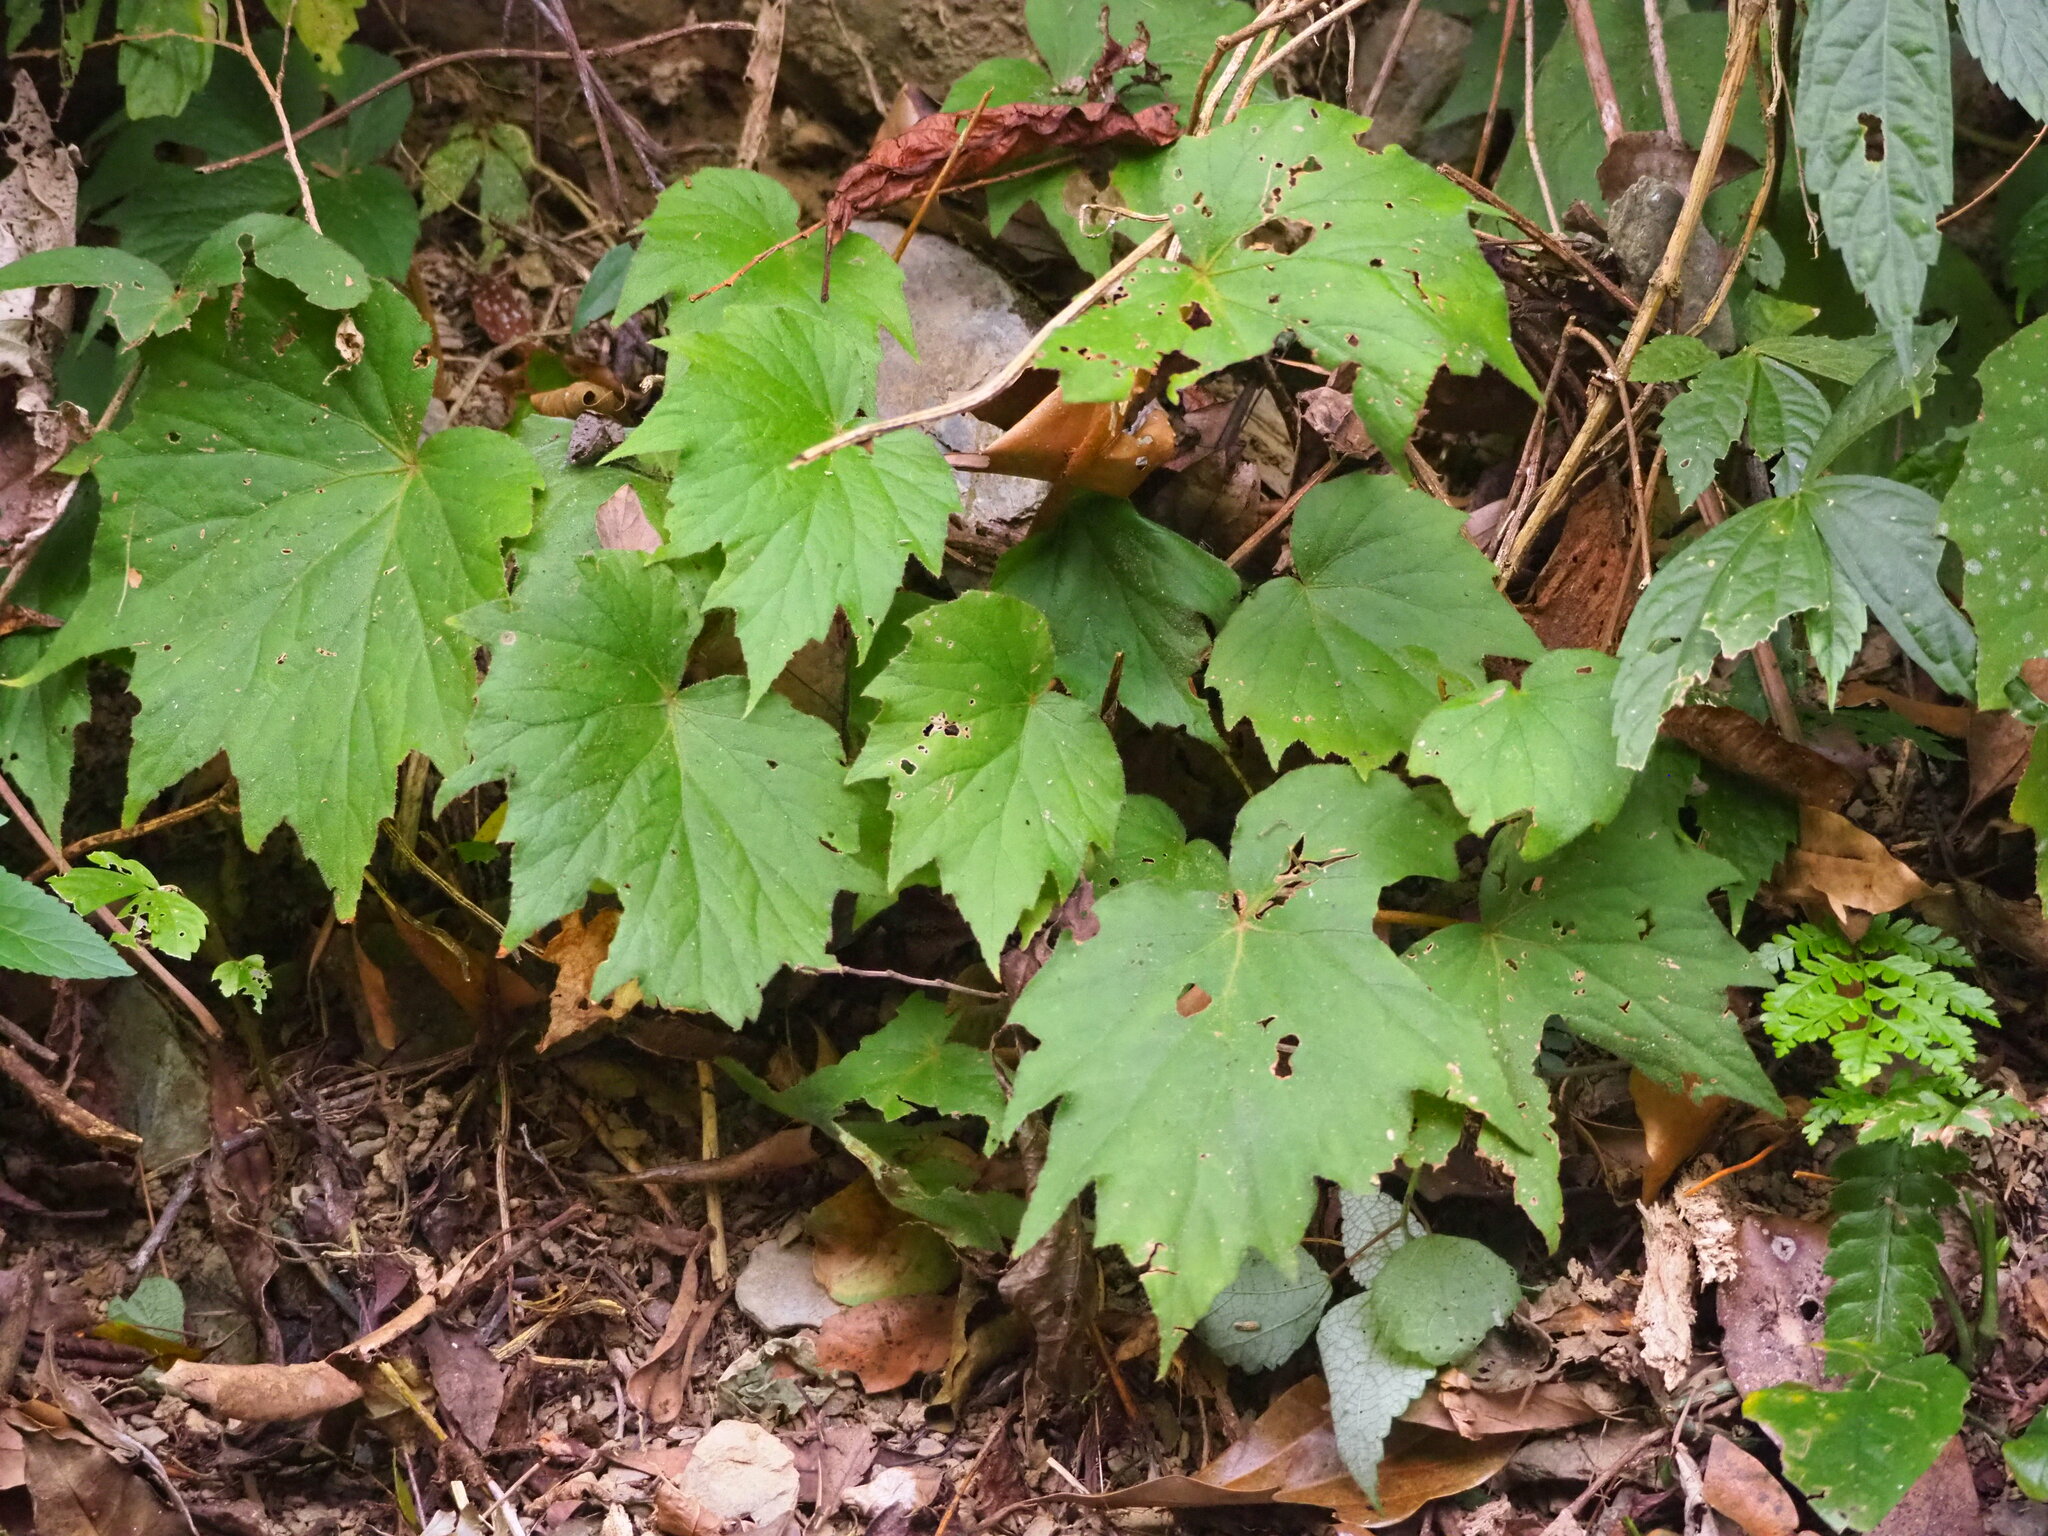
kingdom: Plantae
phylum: Tracheophyta
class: Magnoliopsida
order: Cucurbitales
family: Begoniaceae
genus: Begonia
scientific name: Begonia palmata
